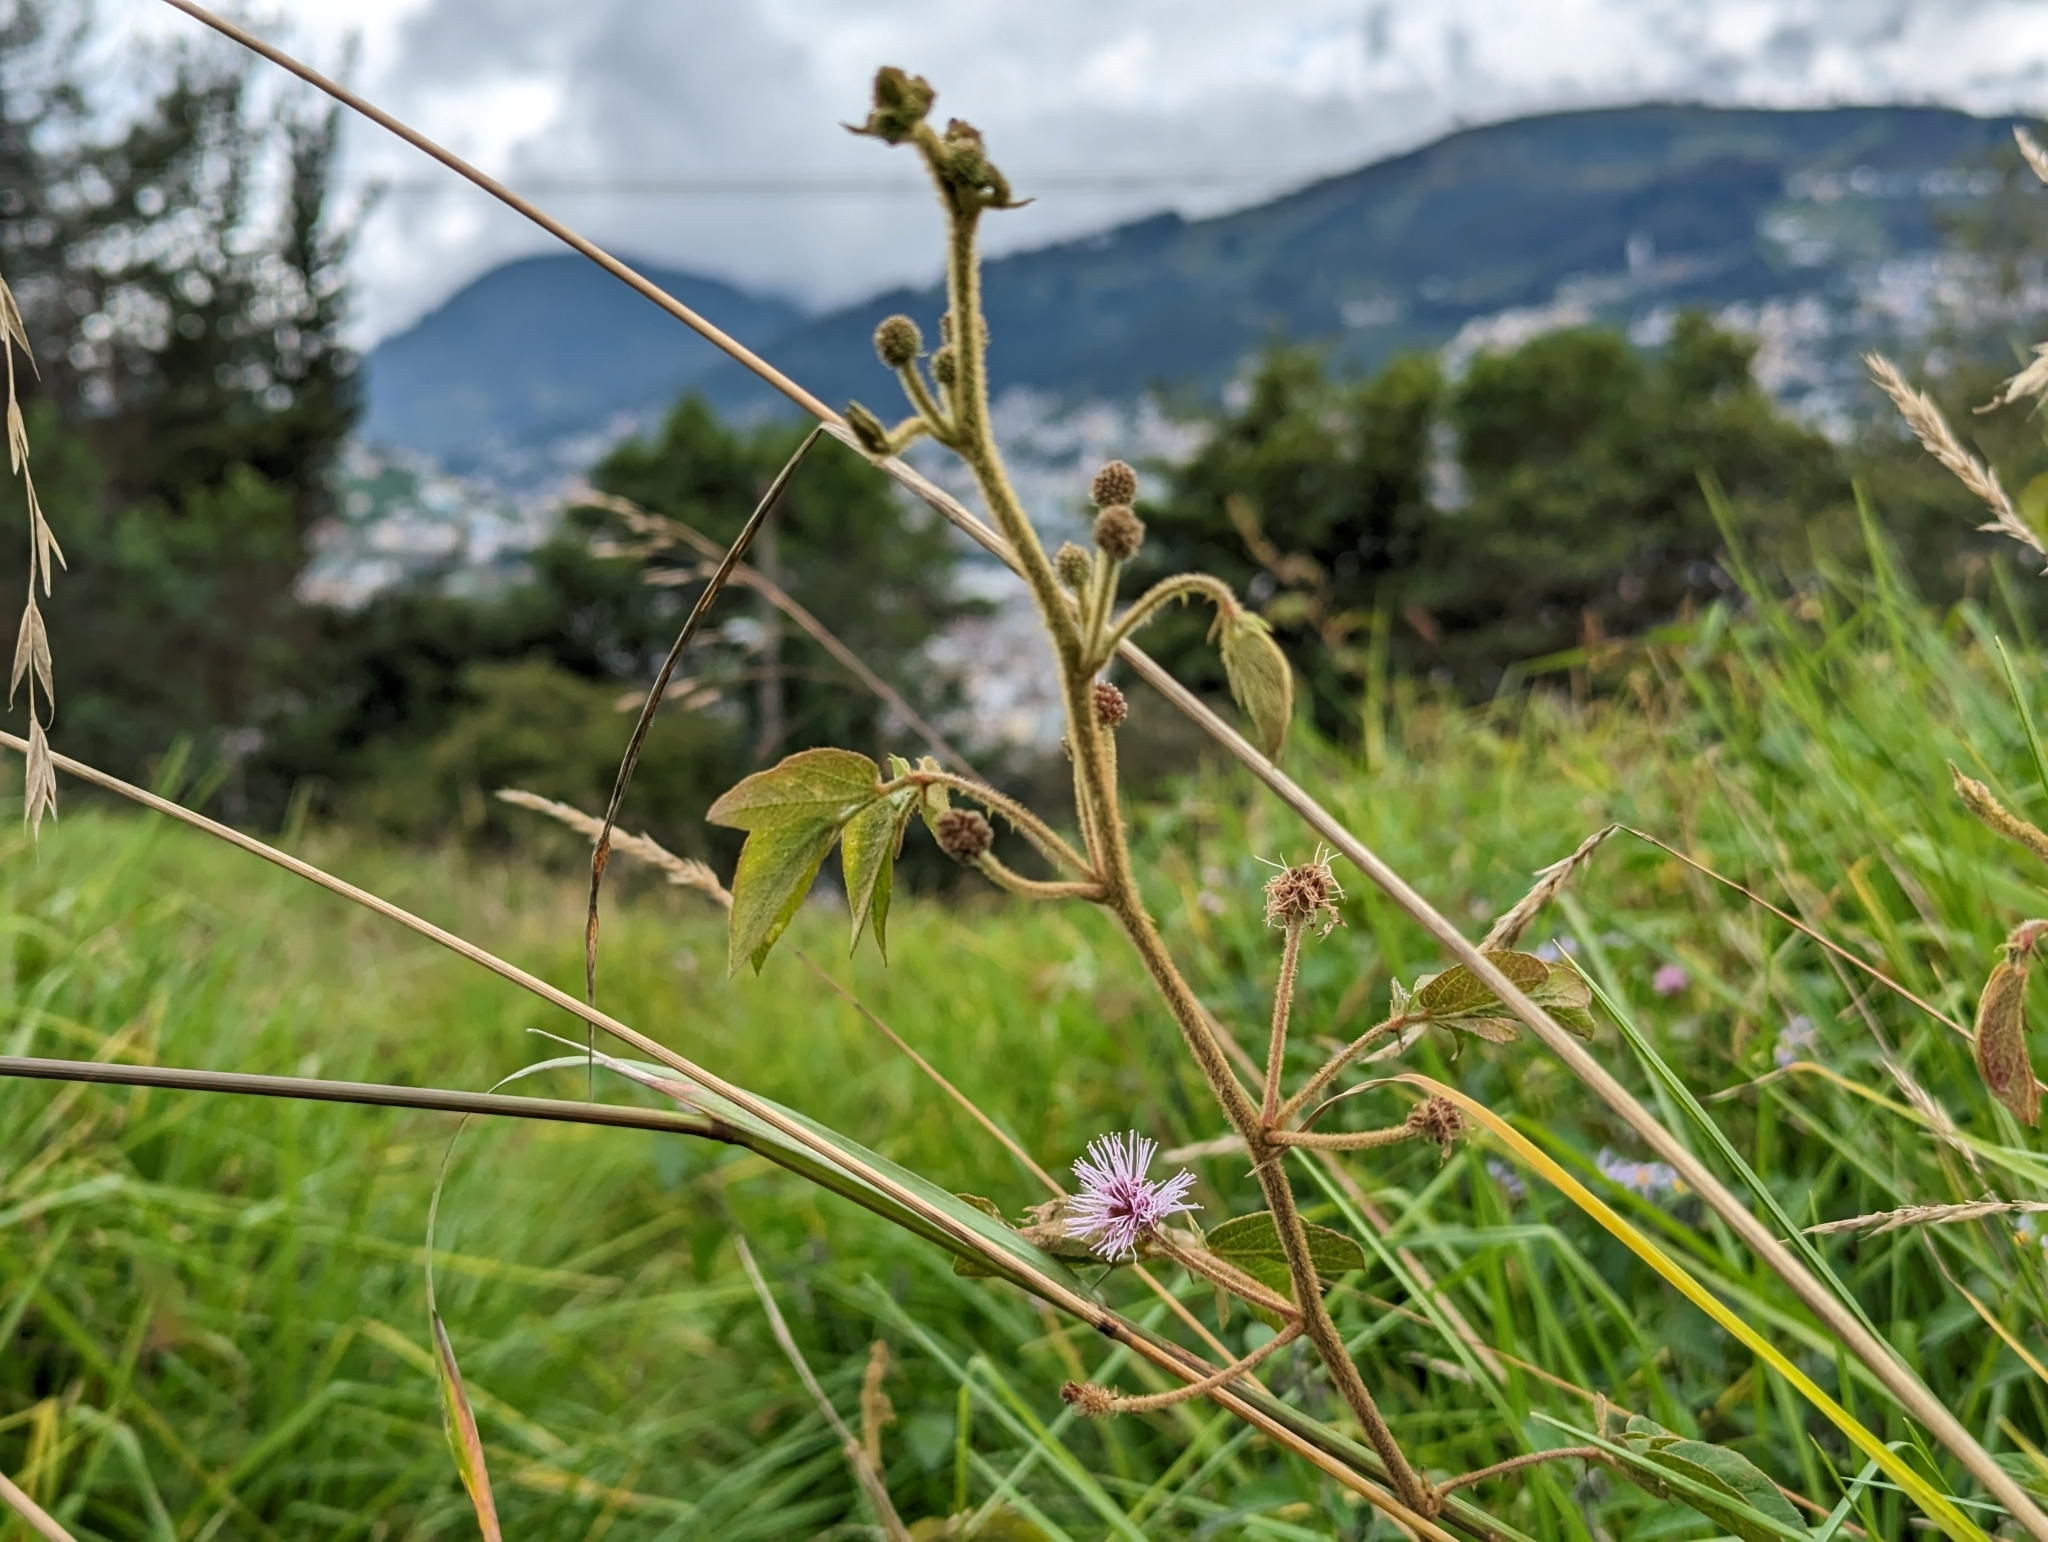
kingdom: Plantae
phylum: Tracheophyta
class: Magnoliopsida
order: Fabales
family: Fabaceae
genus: Mimosa
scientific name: Mimosa albida
